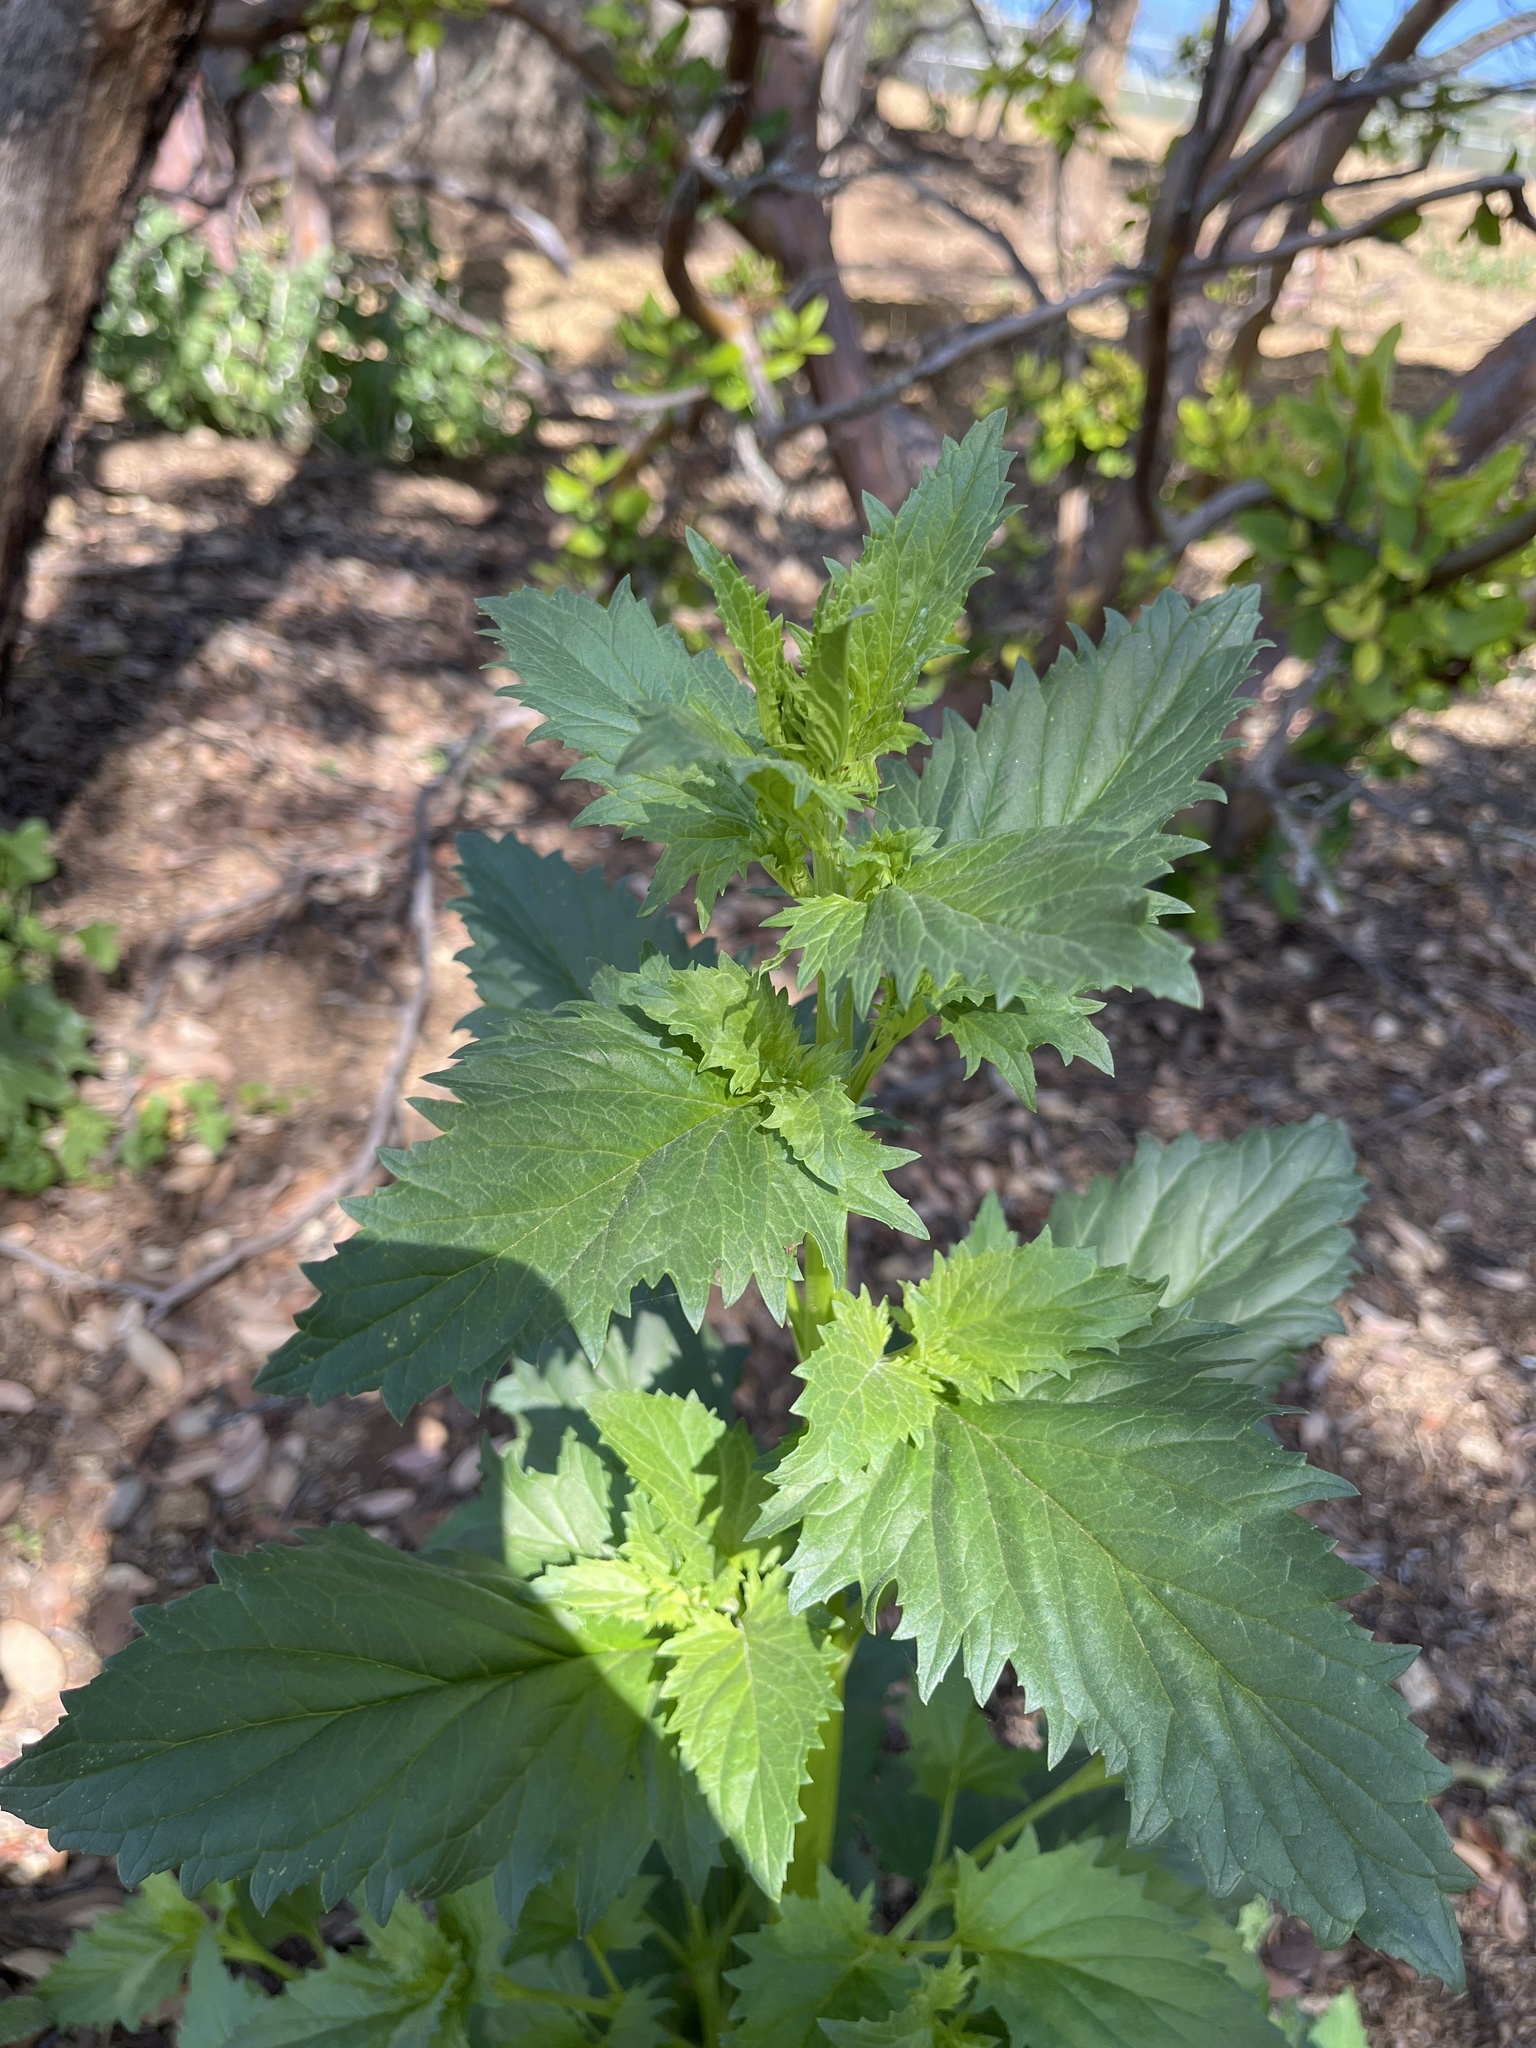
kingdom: Plantae
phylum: Tracheophyta
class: Magnoliopsida
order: Lamiales
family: Scrophulariaceae
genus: Scrophularia
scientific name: Scrophularia californica
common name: California figwort
